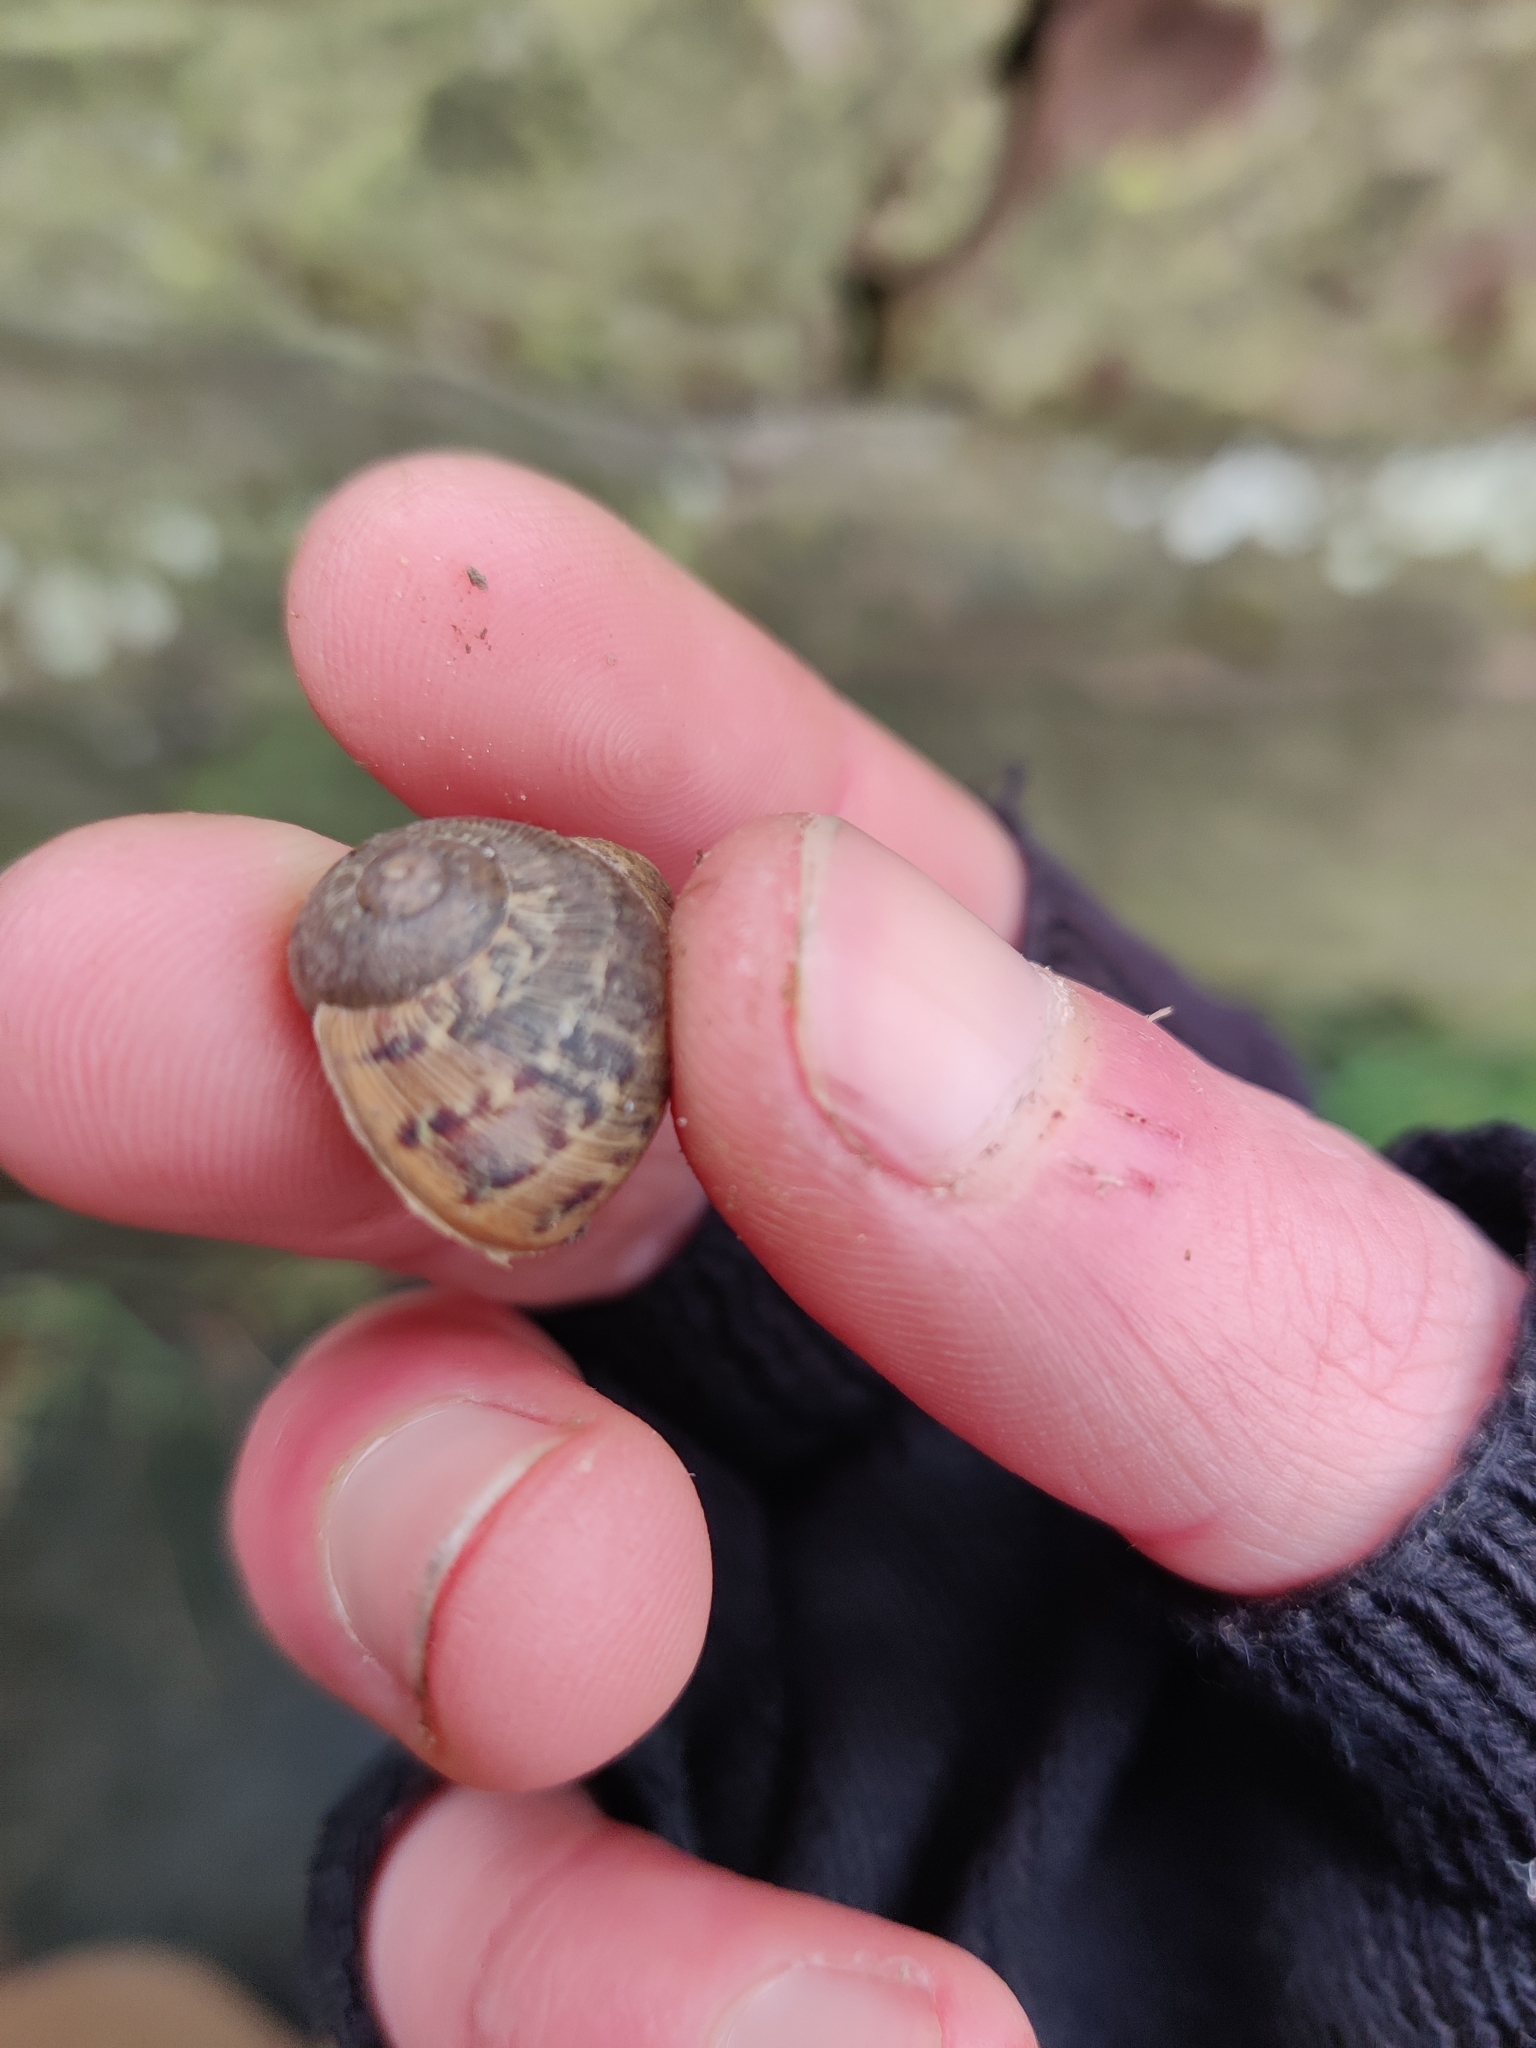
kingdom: Animalia
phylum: Mollusca
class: Gastropoda
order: Stylommatophora
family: Helicidae
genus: Cornu
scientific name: Cornu aspersum
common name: Brown garden snail
